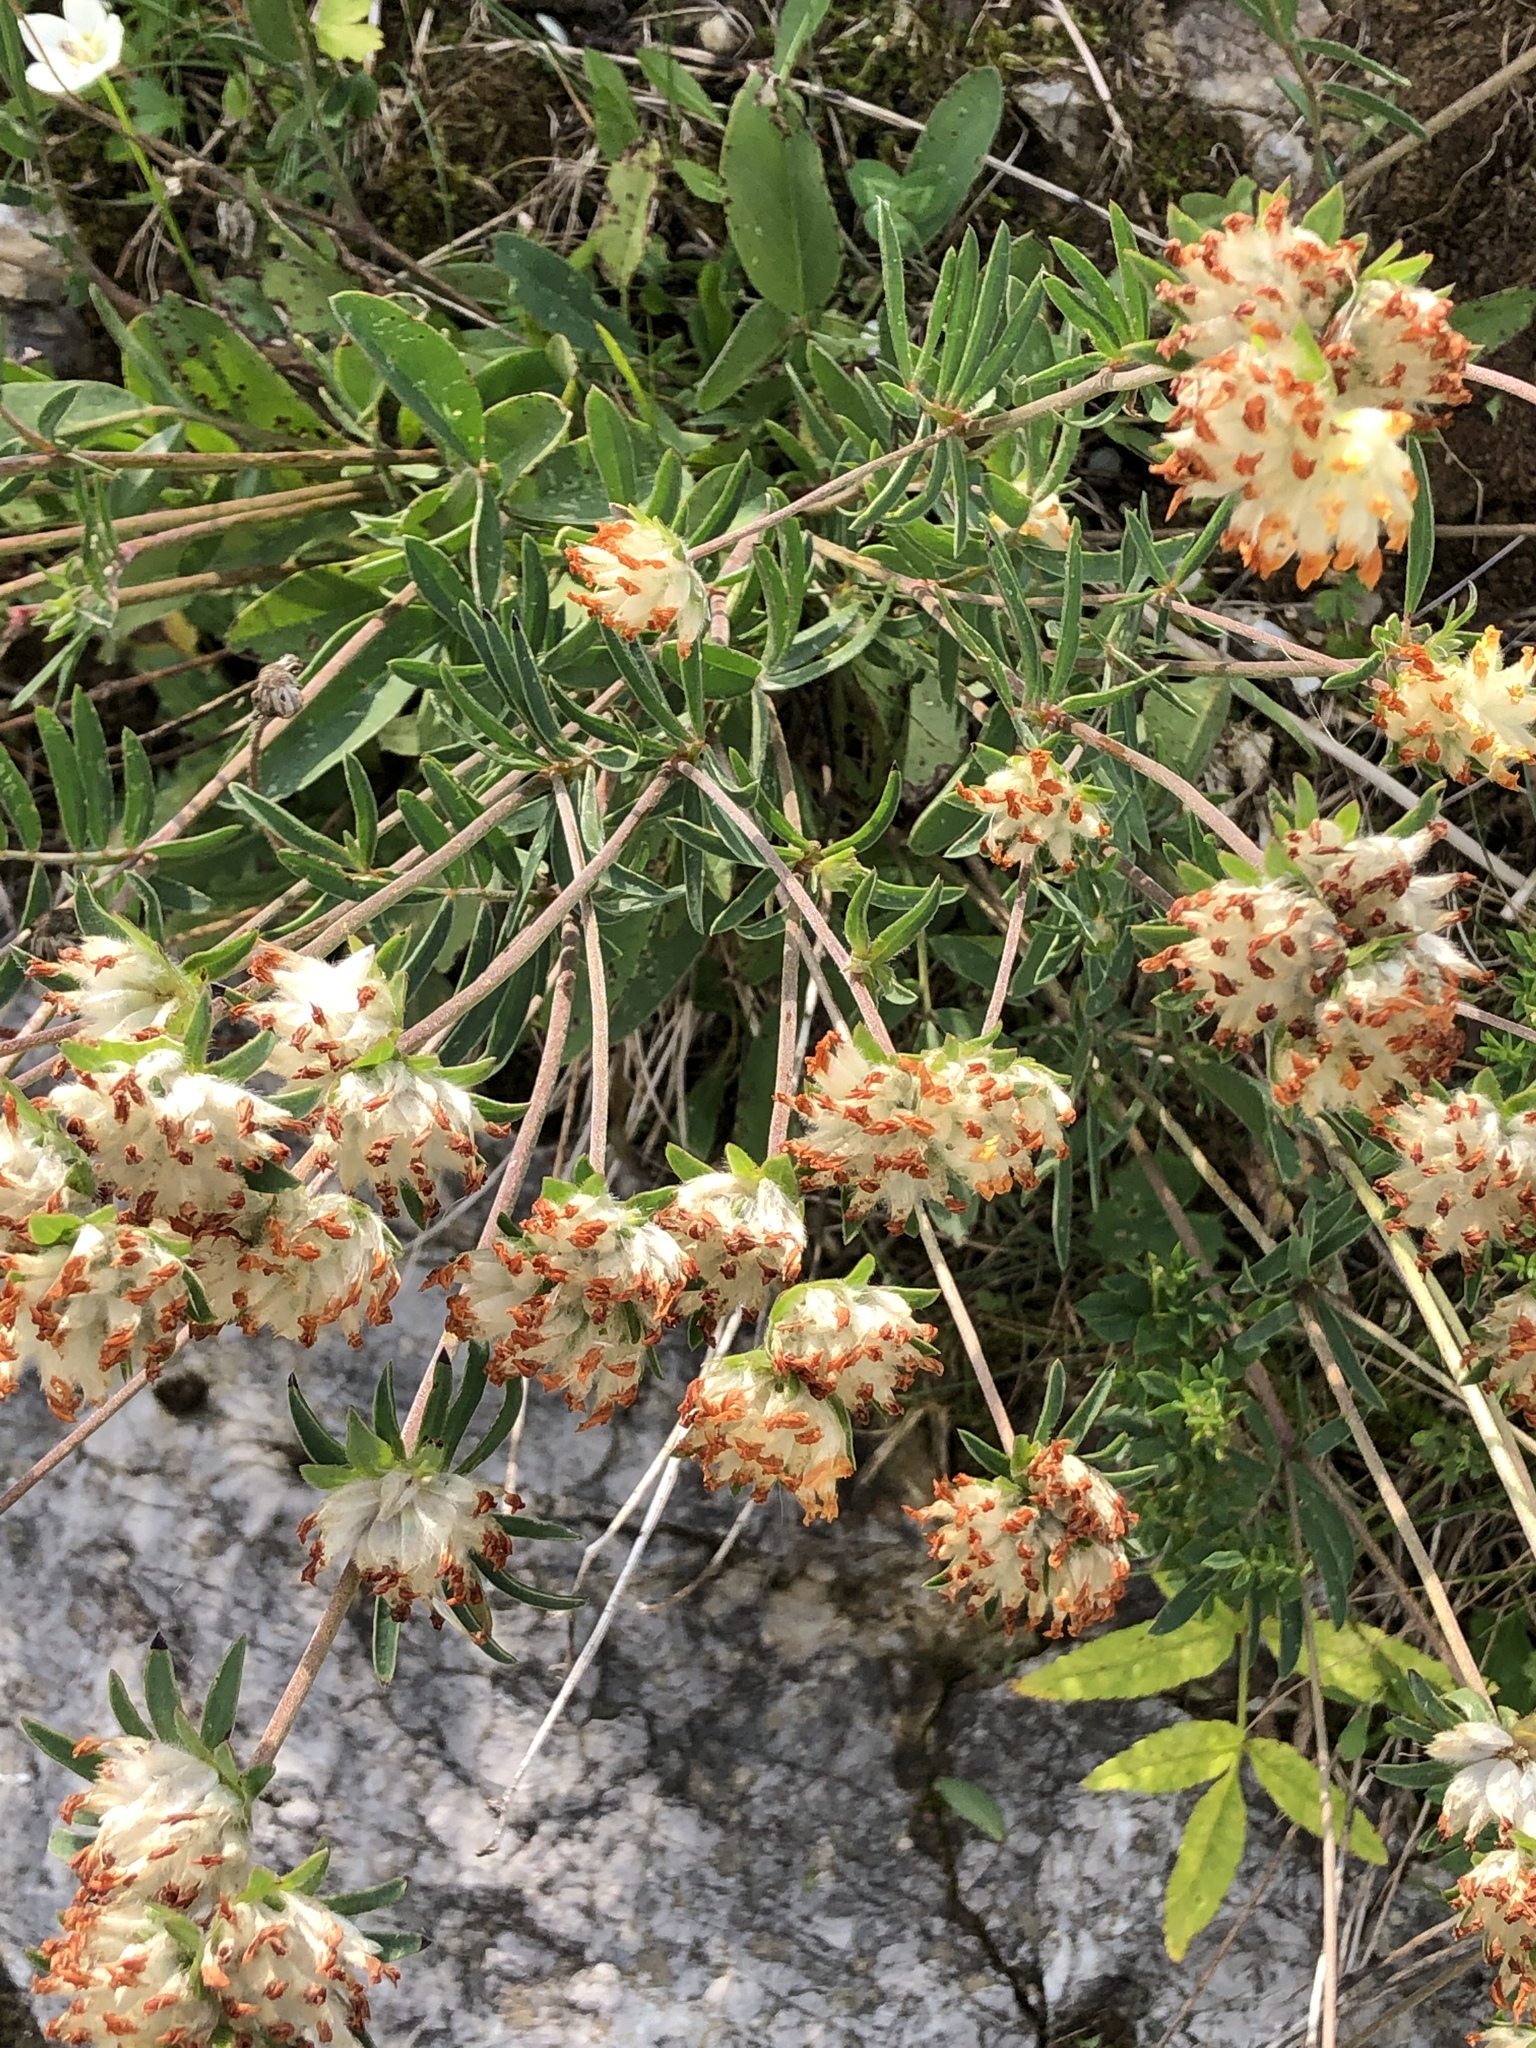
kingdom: Plantae
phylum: Tracheophyta
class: Magnoliopsida
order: Fabales
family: Fabaceae
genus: Anthyllis
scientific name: Anthyllis vulneraria
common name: Kidney vetch
